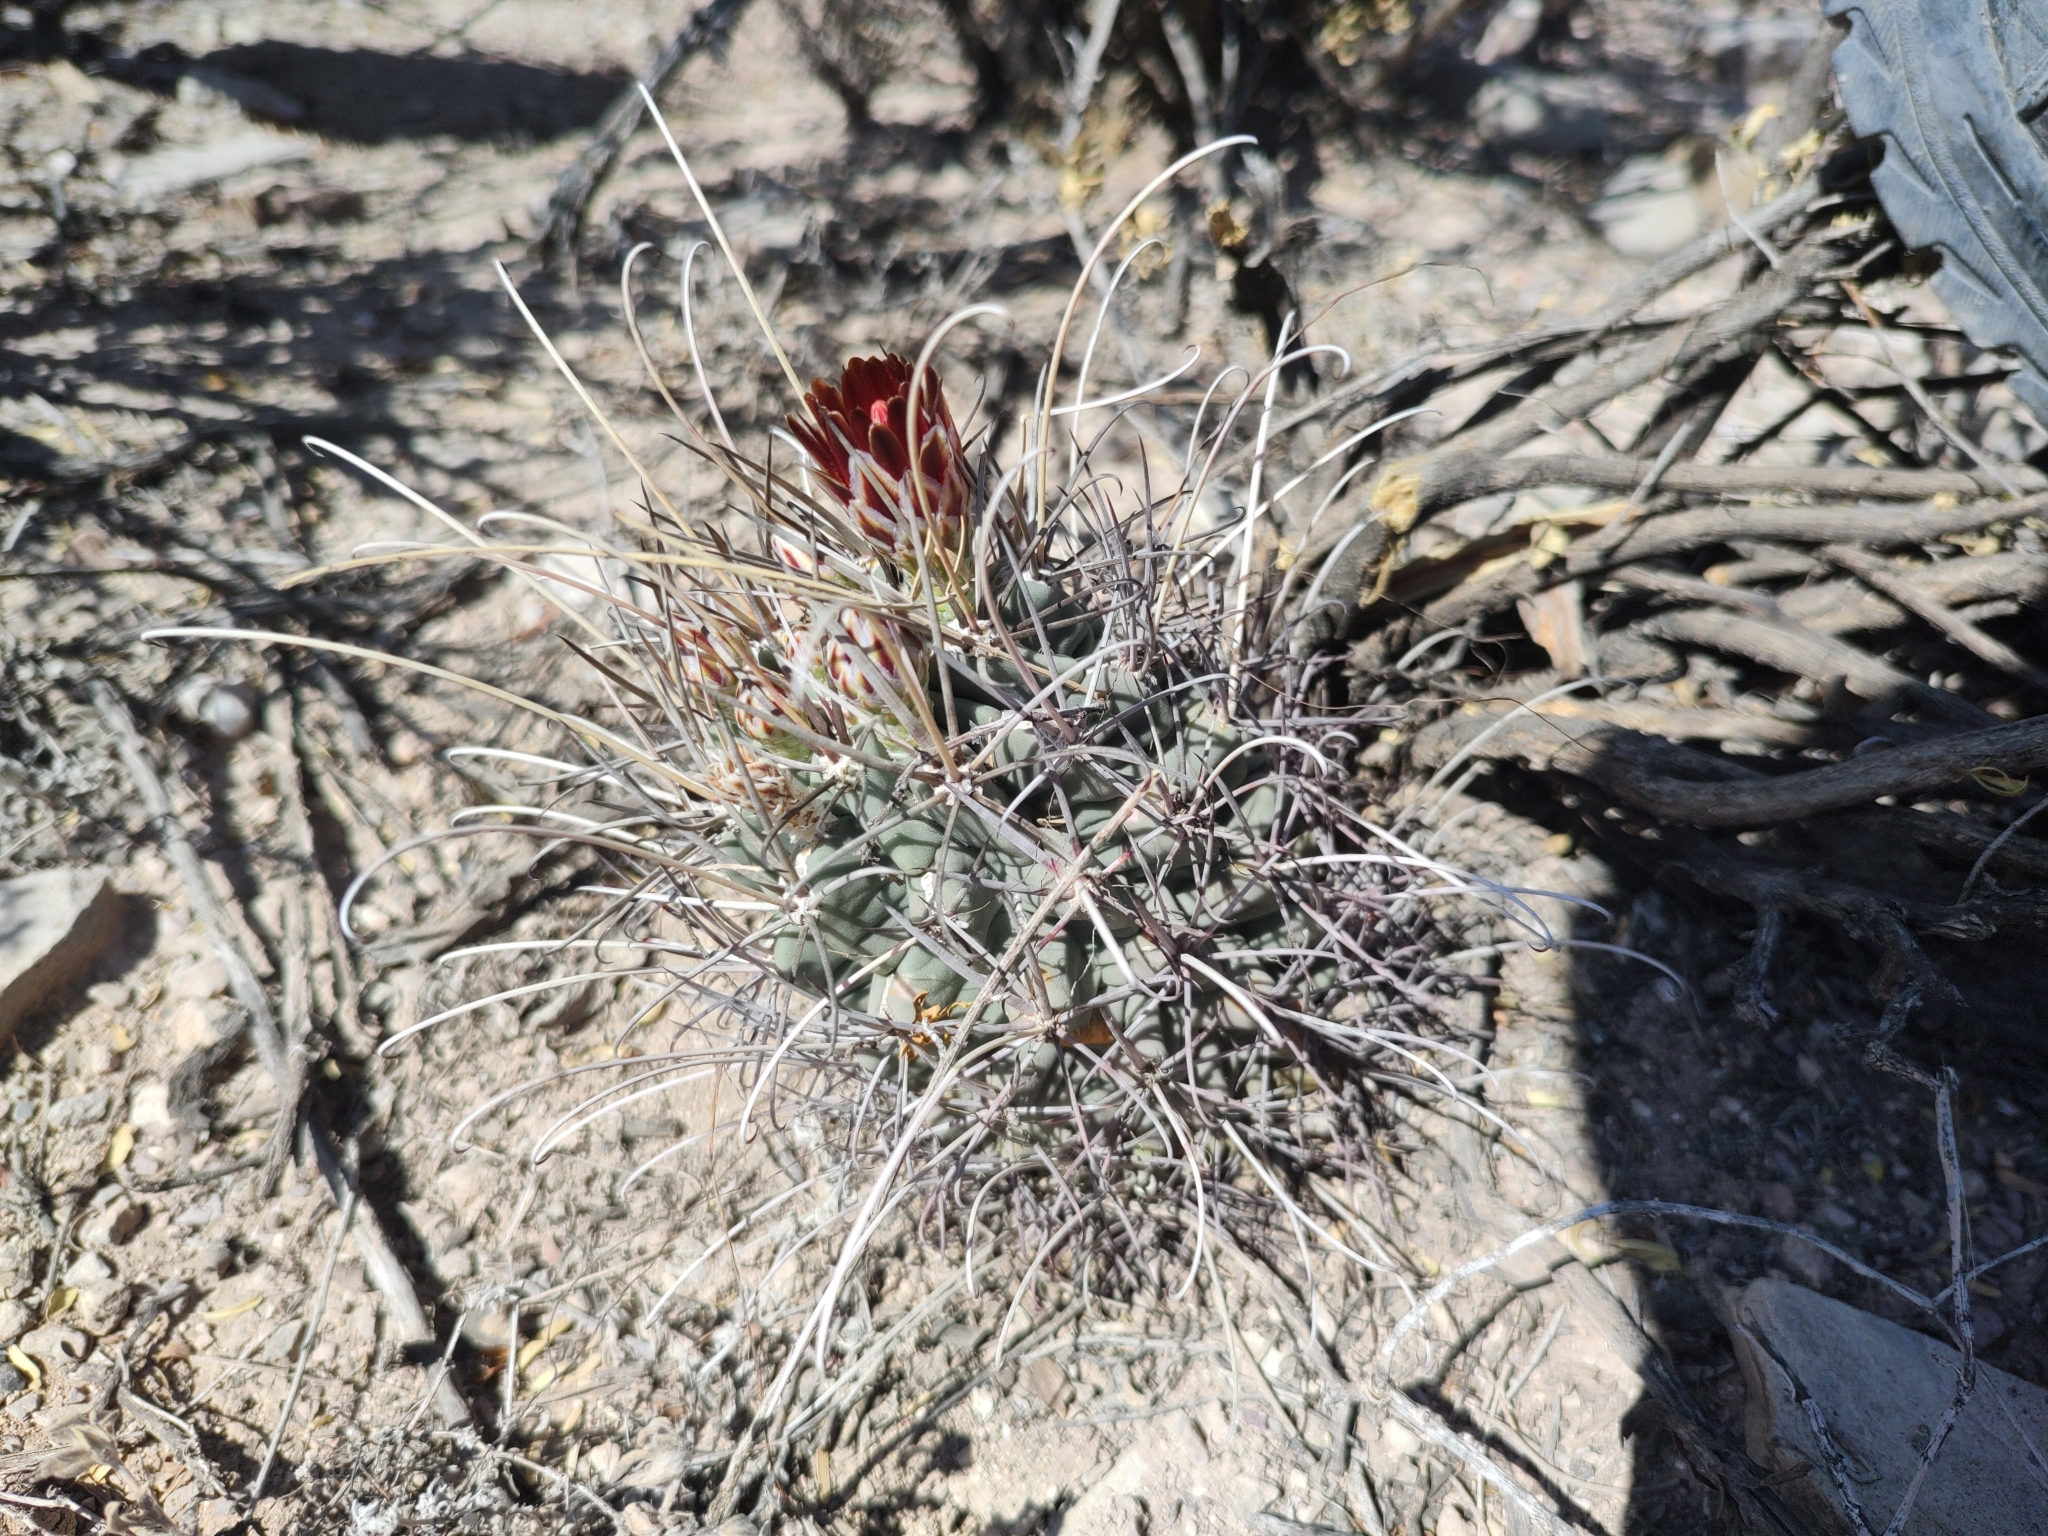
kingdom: Plantae
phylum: Tracheophyta
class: Magnoliopsida
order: Caryophyllales
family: Cactaceae
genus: Ferocactus
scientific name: Ferocactus uncinatus
